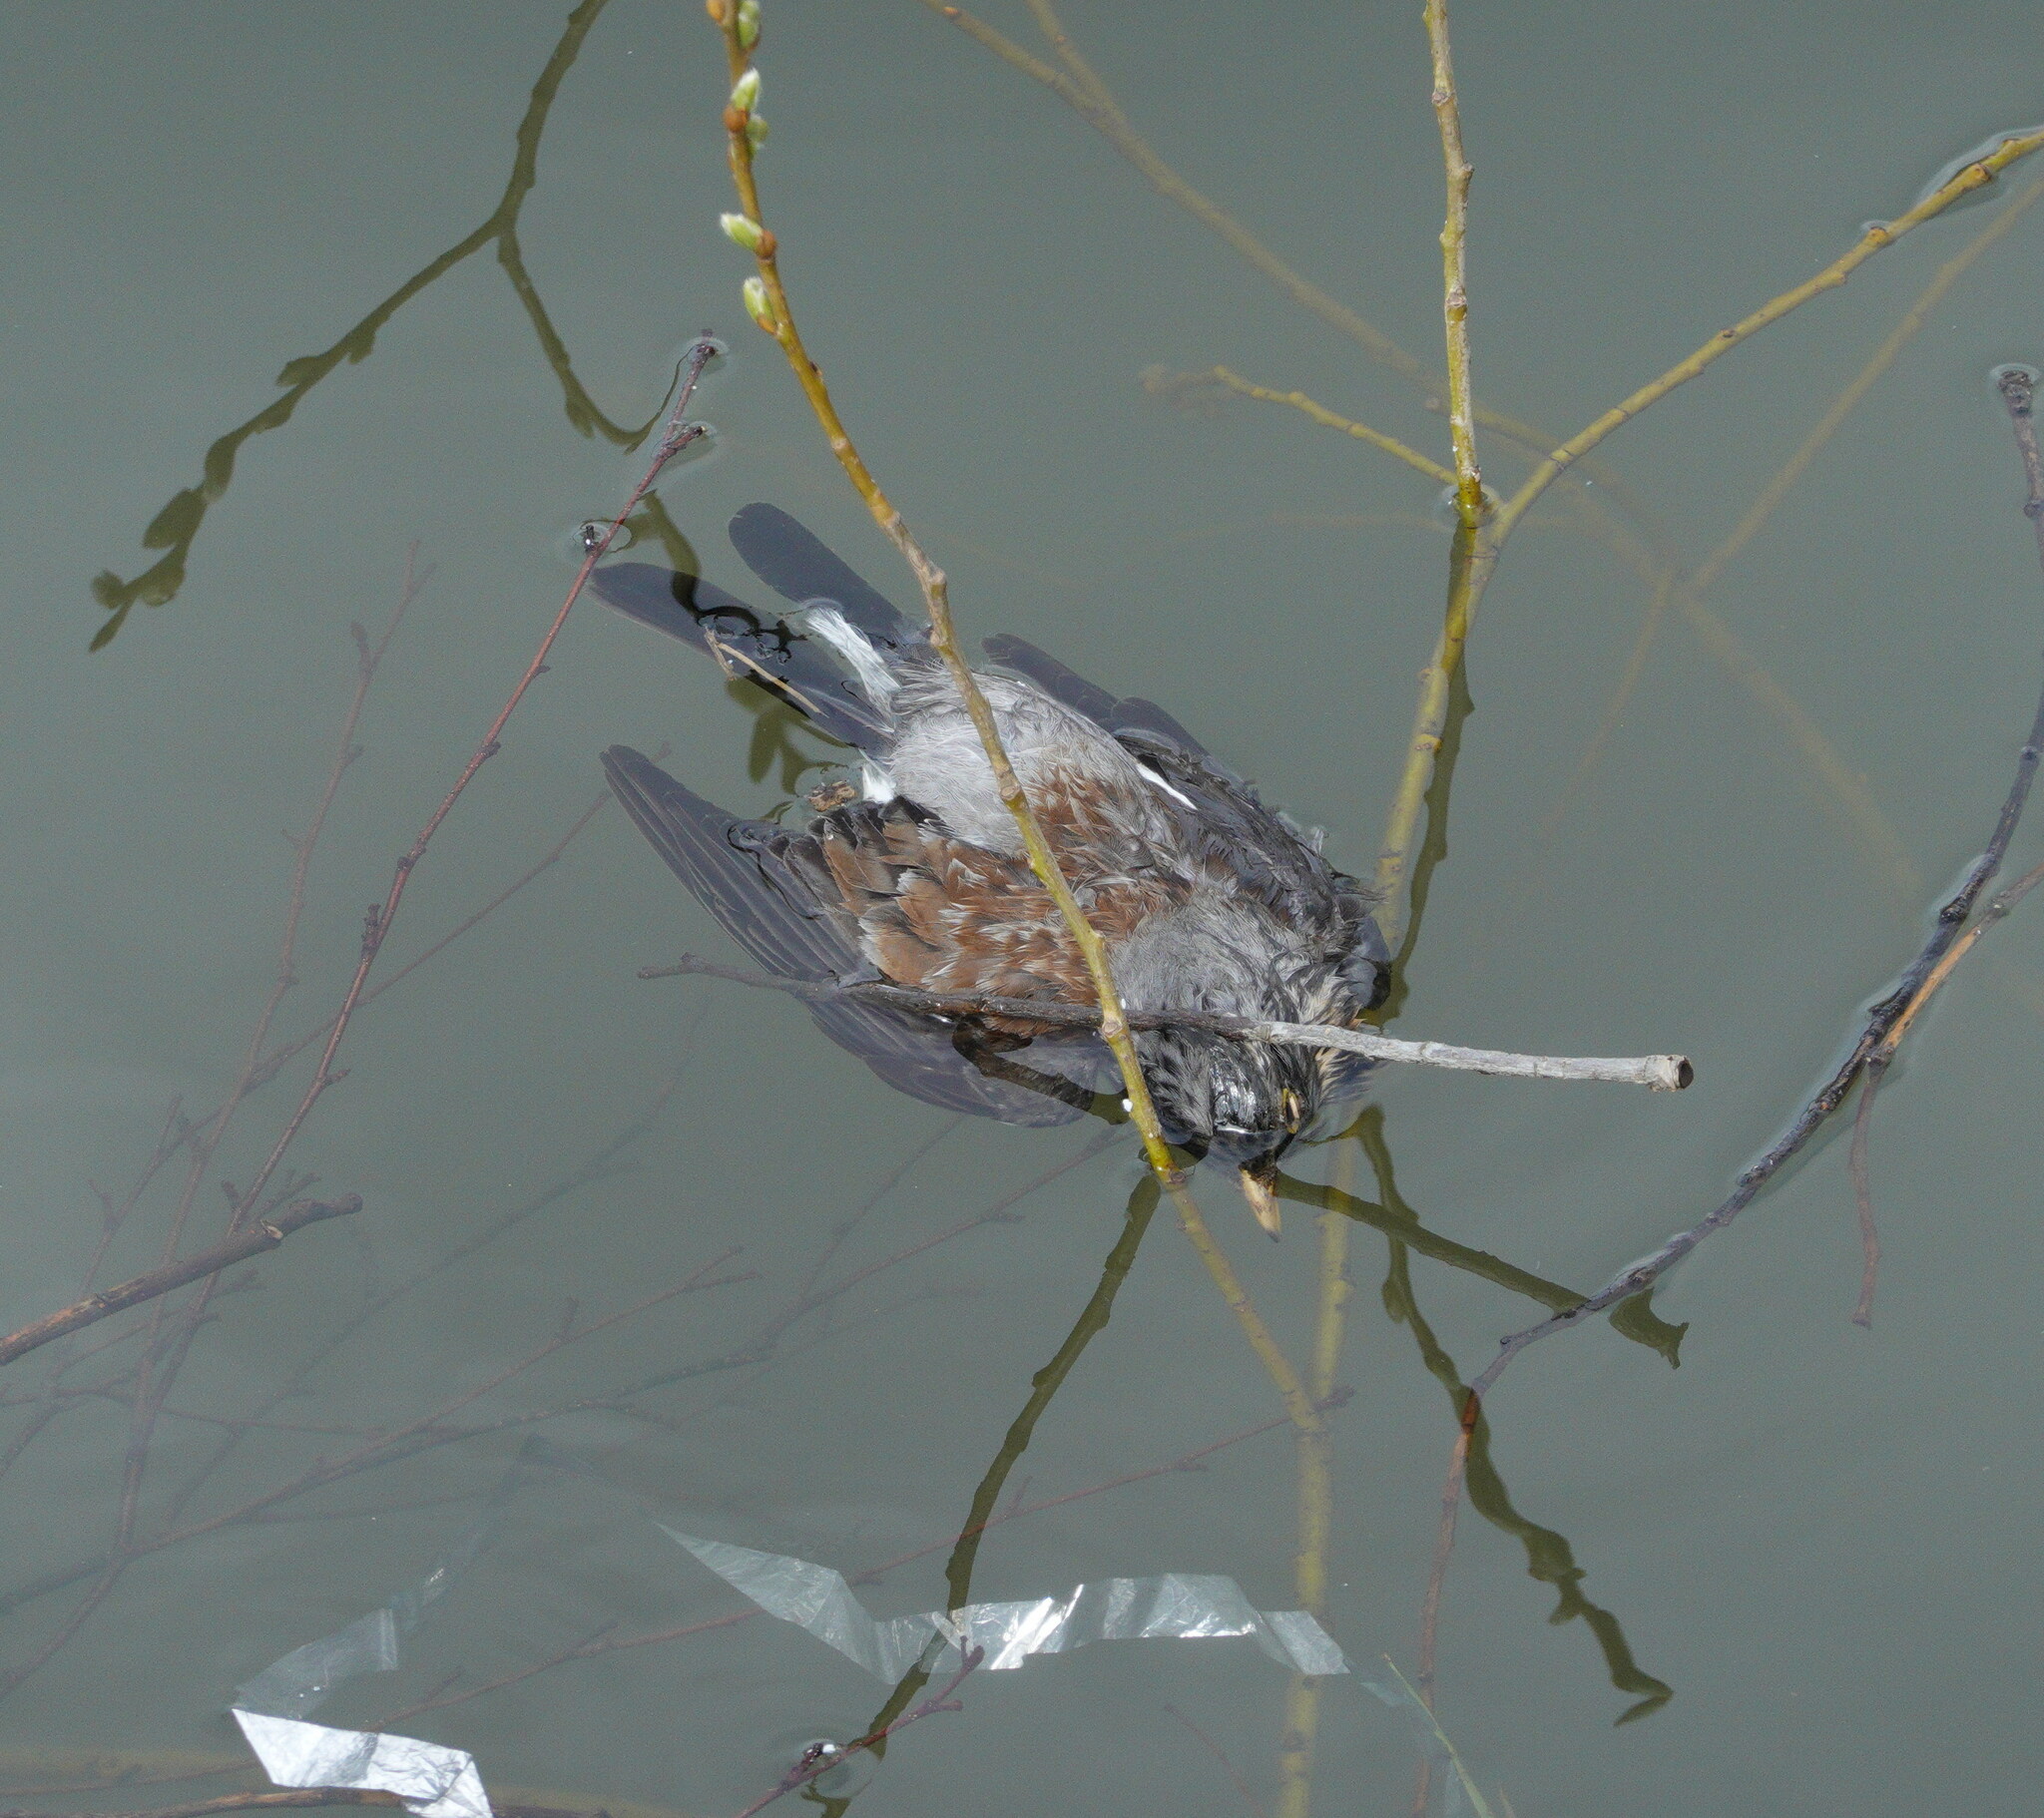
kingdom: Animalia
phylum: Chordata
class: Aves
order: Passeriformes
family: Turdidae
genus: Turdus
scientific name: Turdus pilaris
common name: Fieldfare
